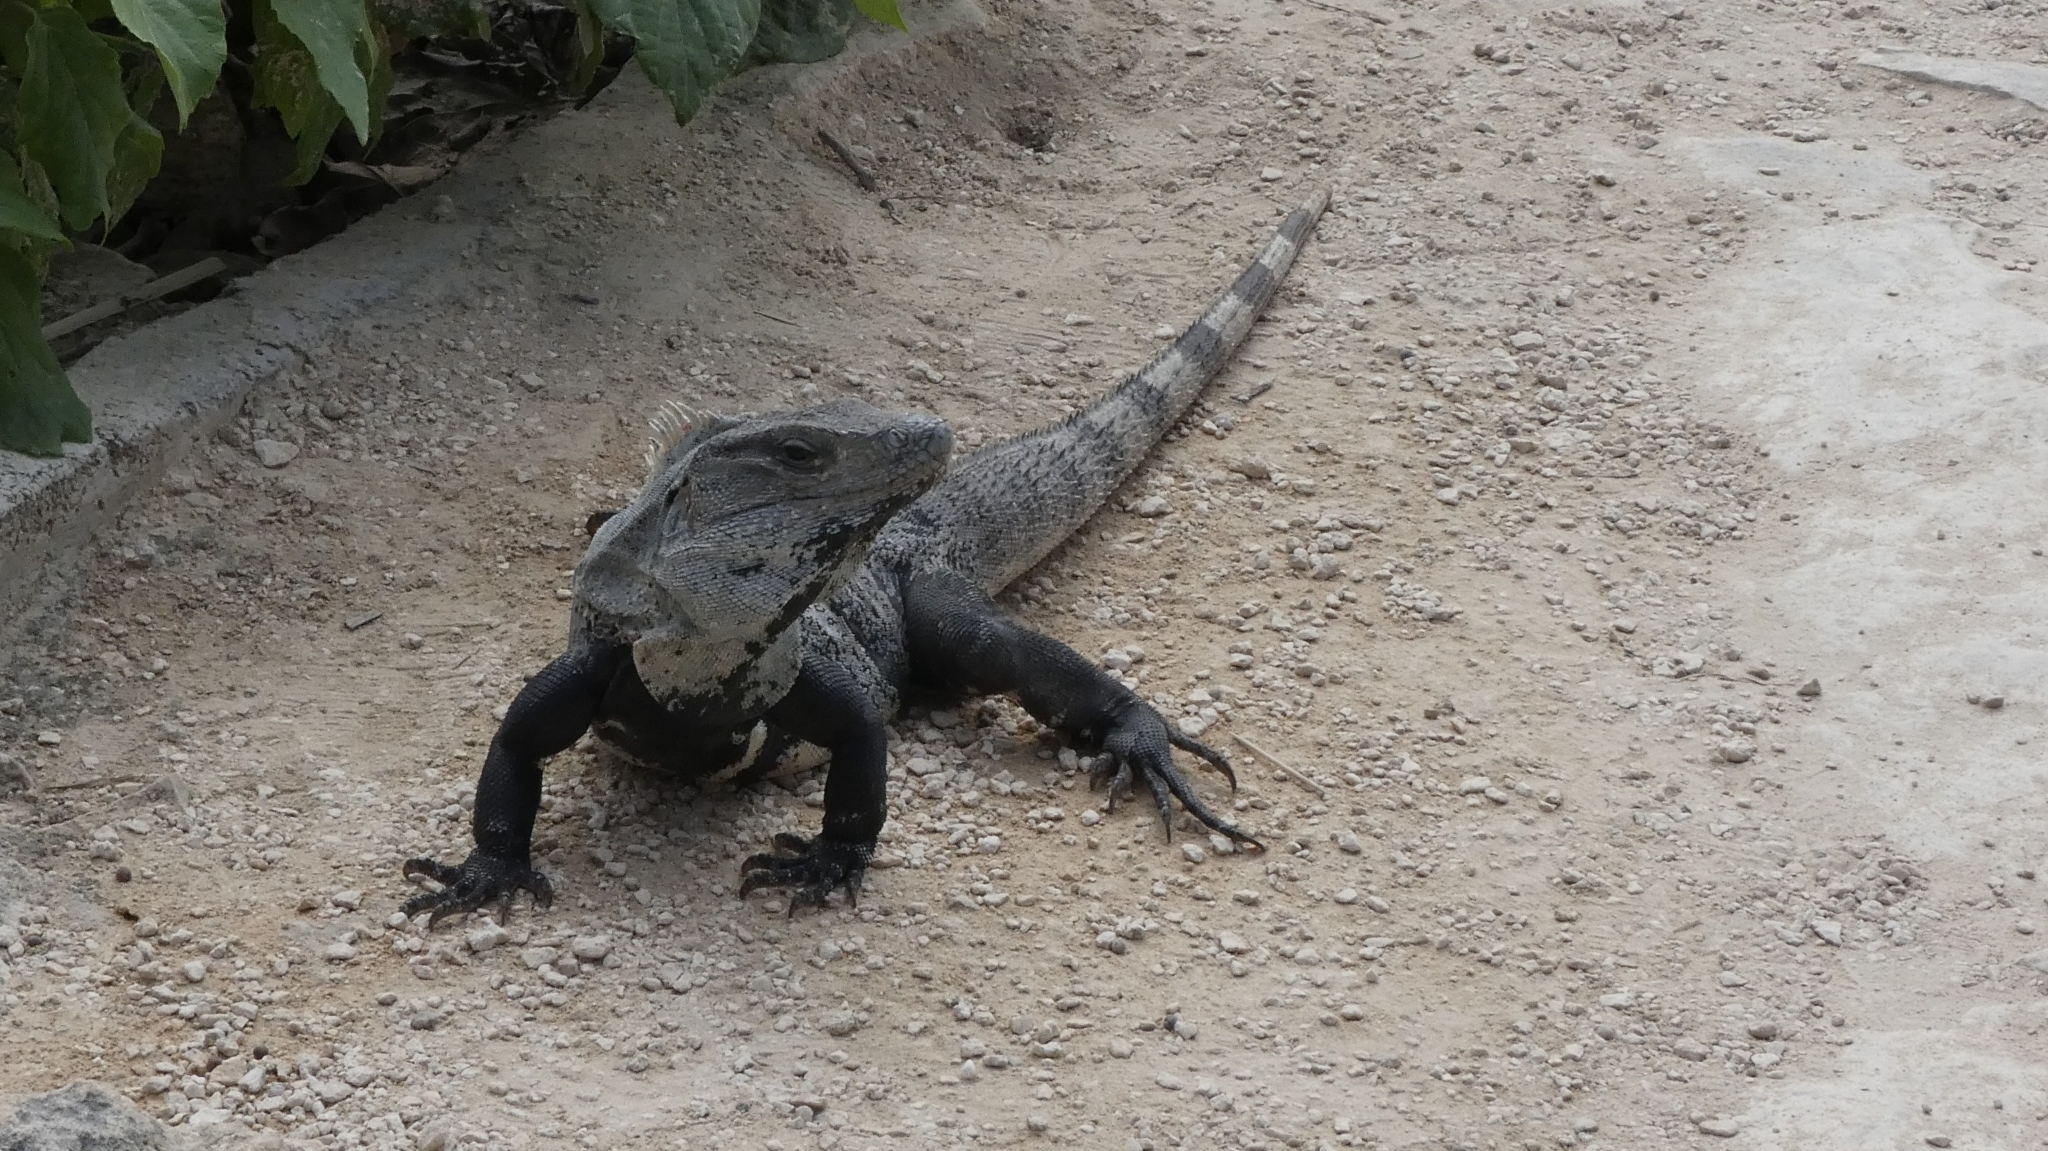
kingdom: Animalia
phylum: Chordata
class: Squamata
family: Iguanidae
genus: Ctenosaura
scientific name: Ctenosaura similis
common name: Black spiny-tailed iguana
